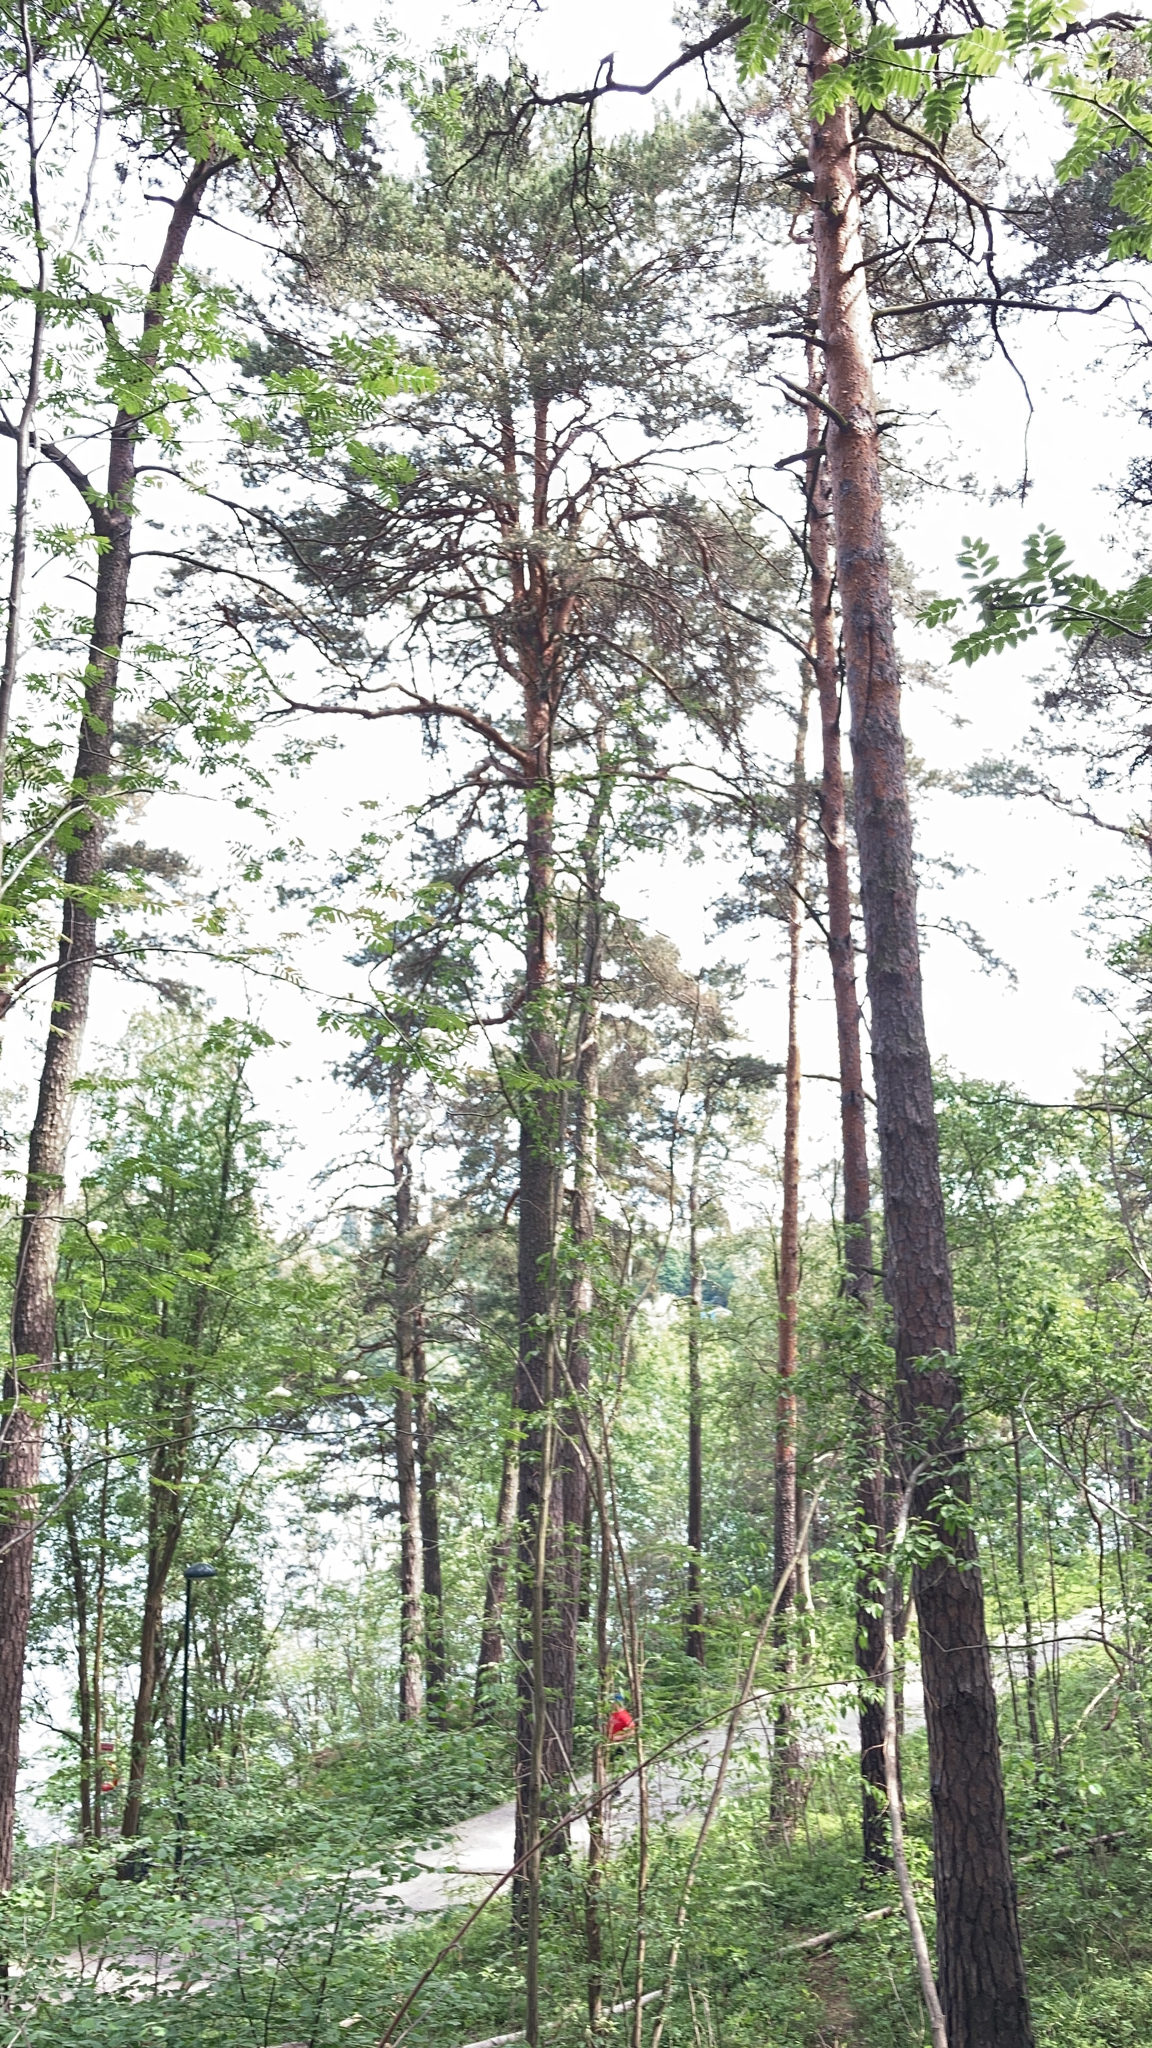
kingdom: Plantae
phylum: Tracheophyta
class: Pinopsida
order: Pinales
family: Pinaceae
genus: Pinus
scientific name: Pinus sylvestris
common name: Scots pine
